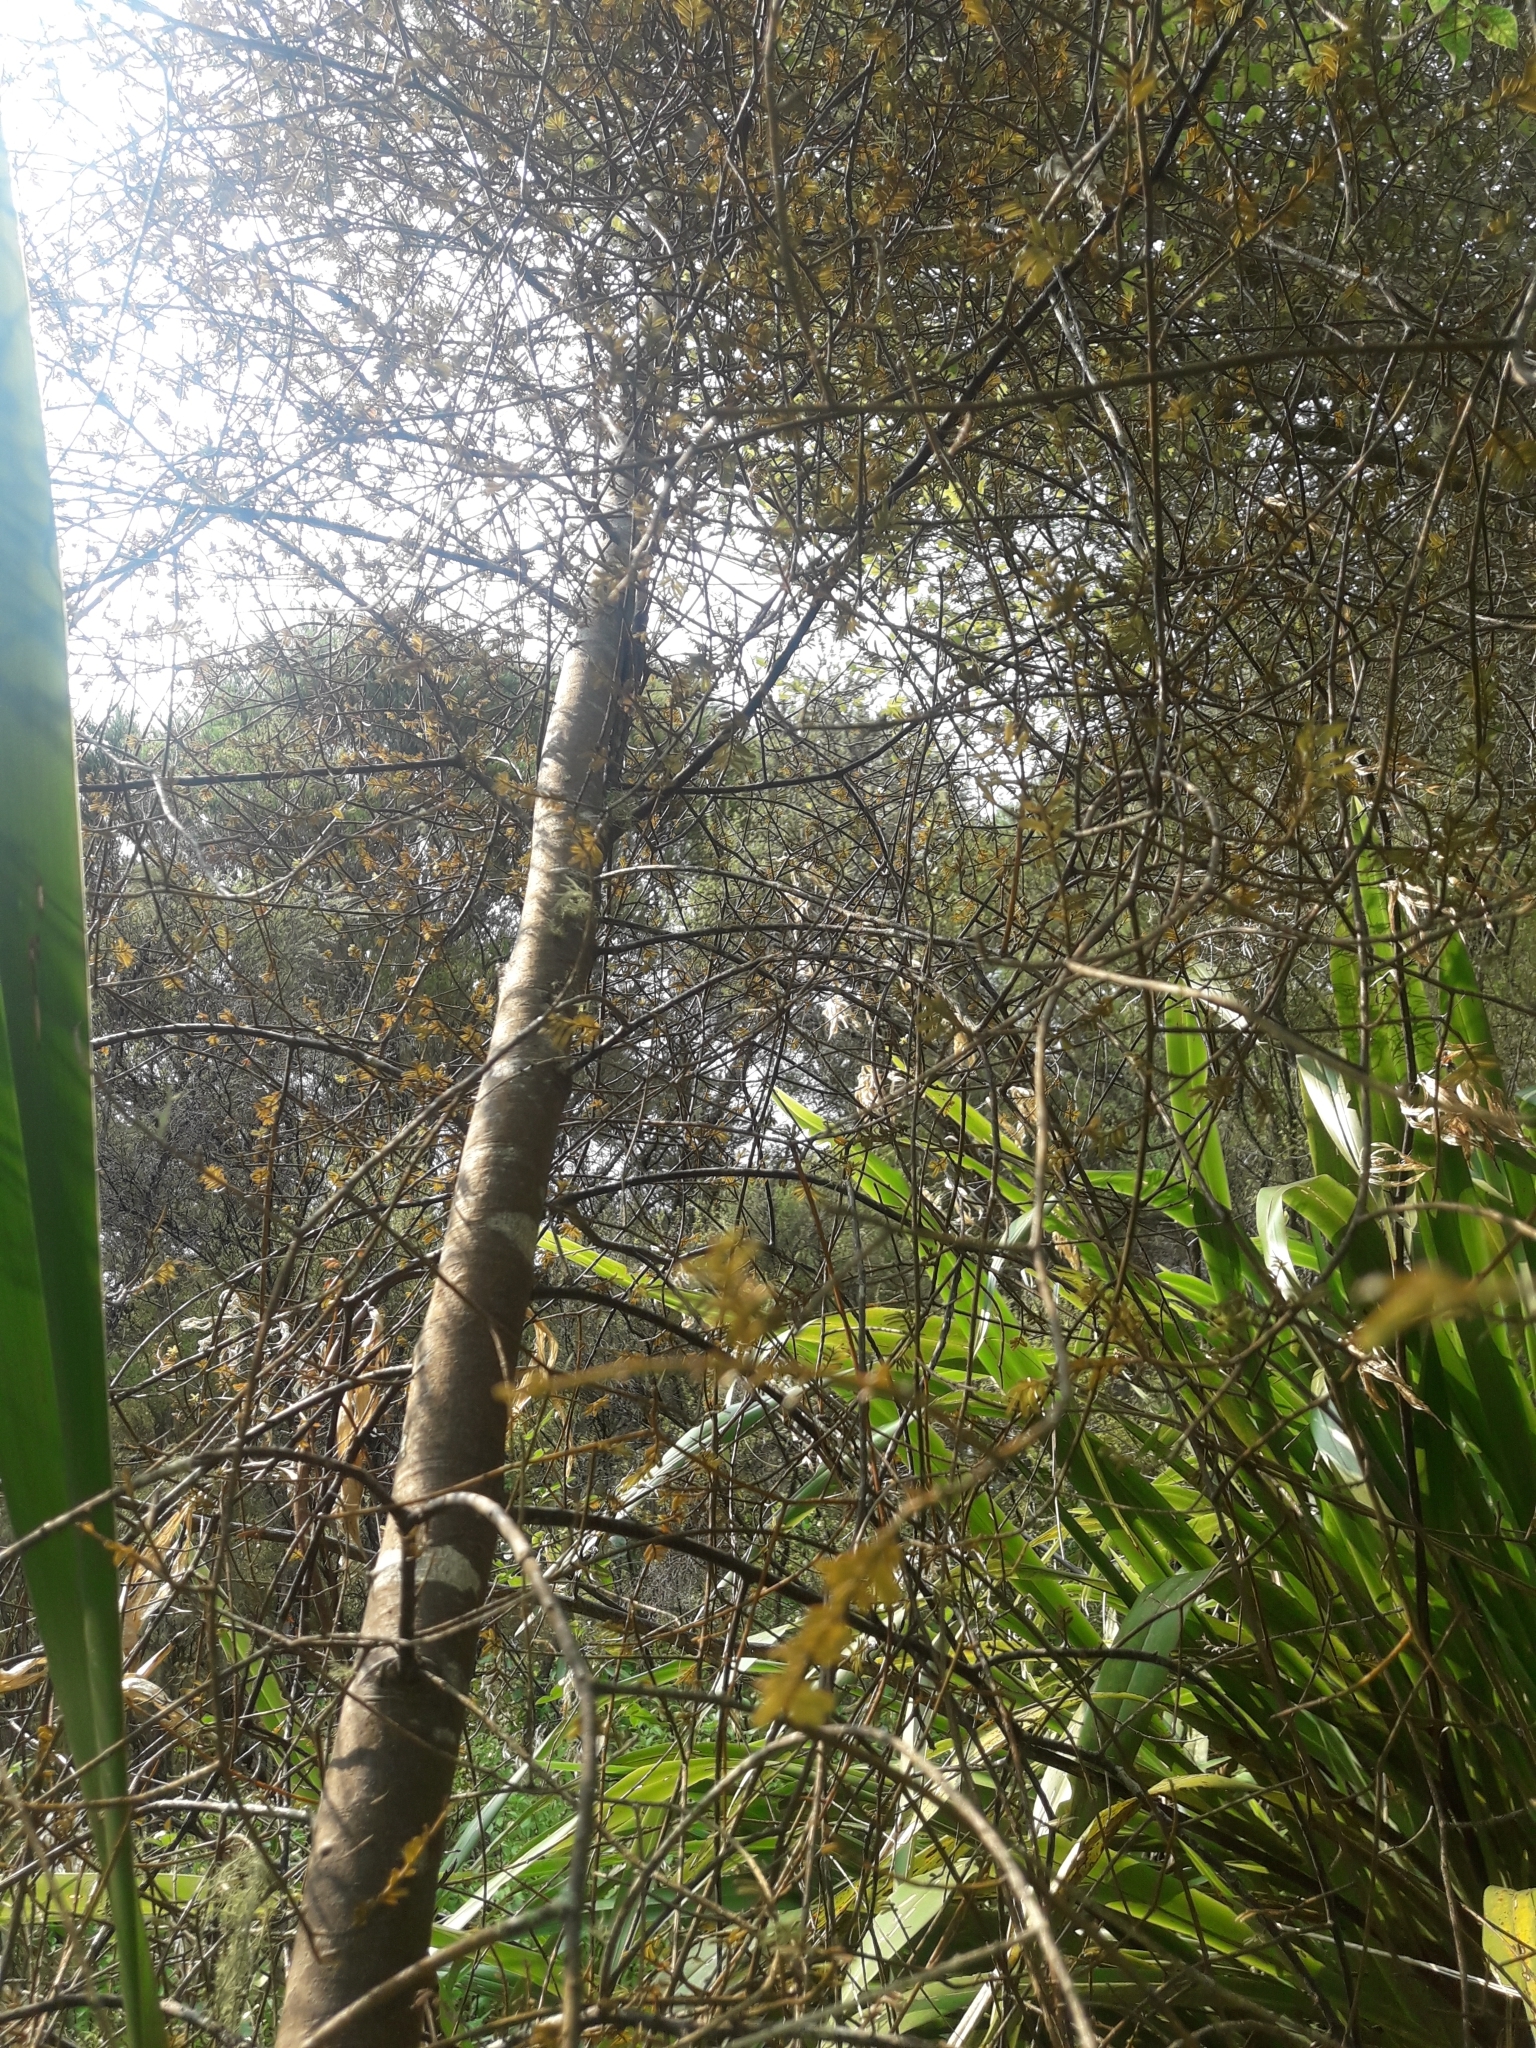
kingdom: Plantae
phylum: Tracheophyta
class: Pinopsida
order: Pinales
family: Podocarpaceae
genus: Prumnopitys
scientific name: Prumnopitys taxifolia
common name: Matai
